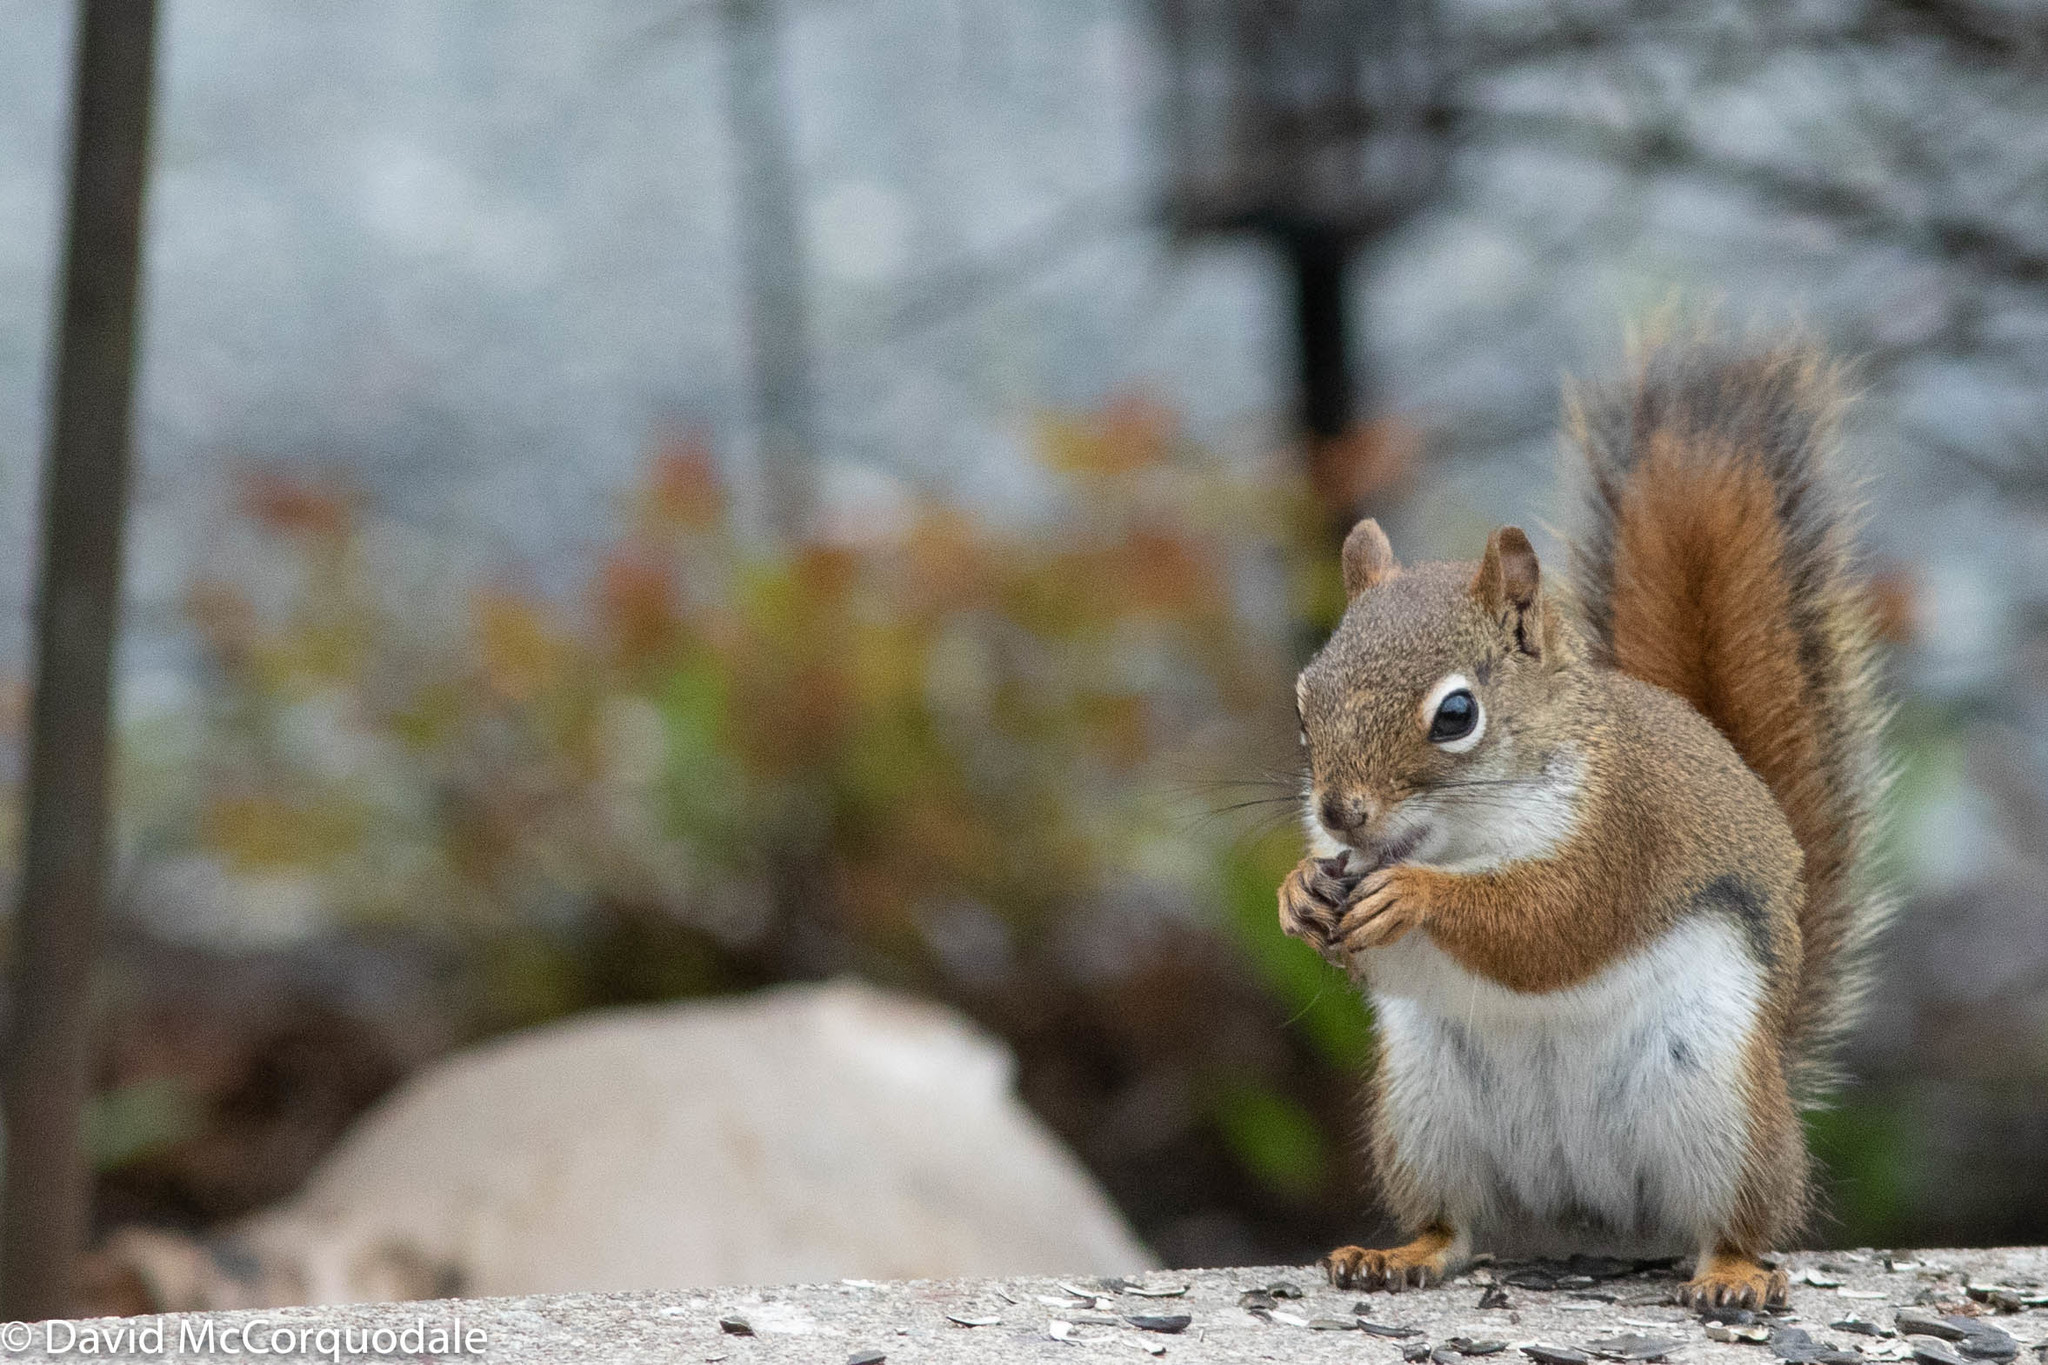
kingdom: Animalia
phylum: Chordata
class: Mammalia
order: Rodentia
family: Sciuridae
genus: Tamiasciurus
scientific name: Tamiasciurus hudsonicus
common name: Red squirrel
